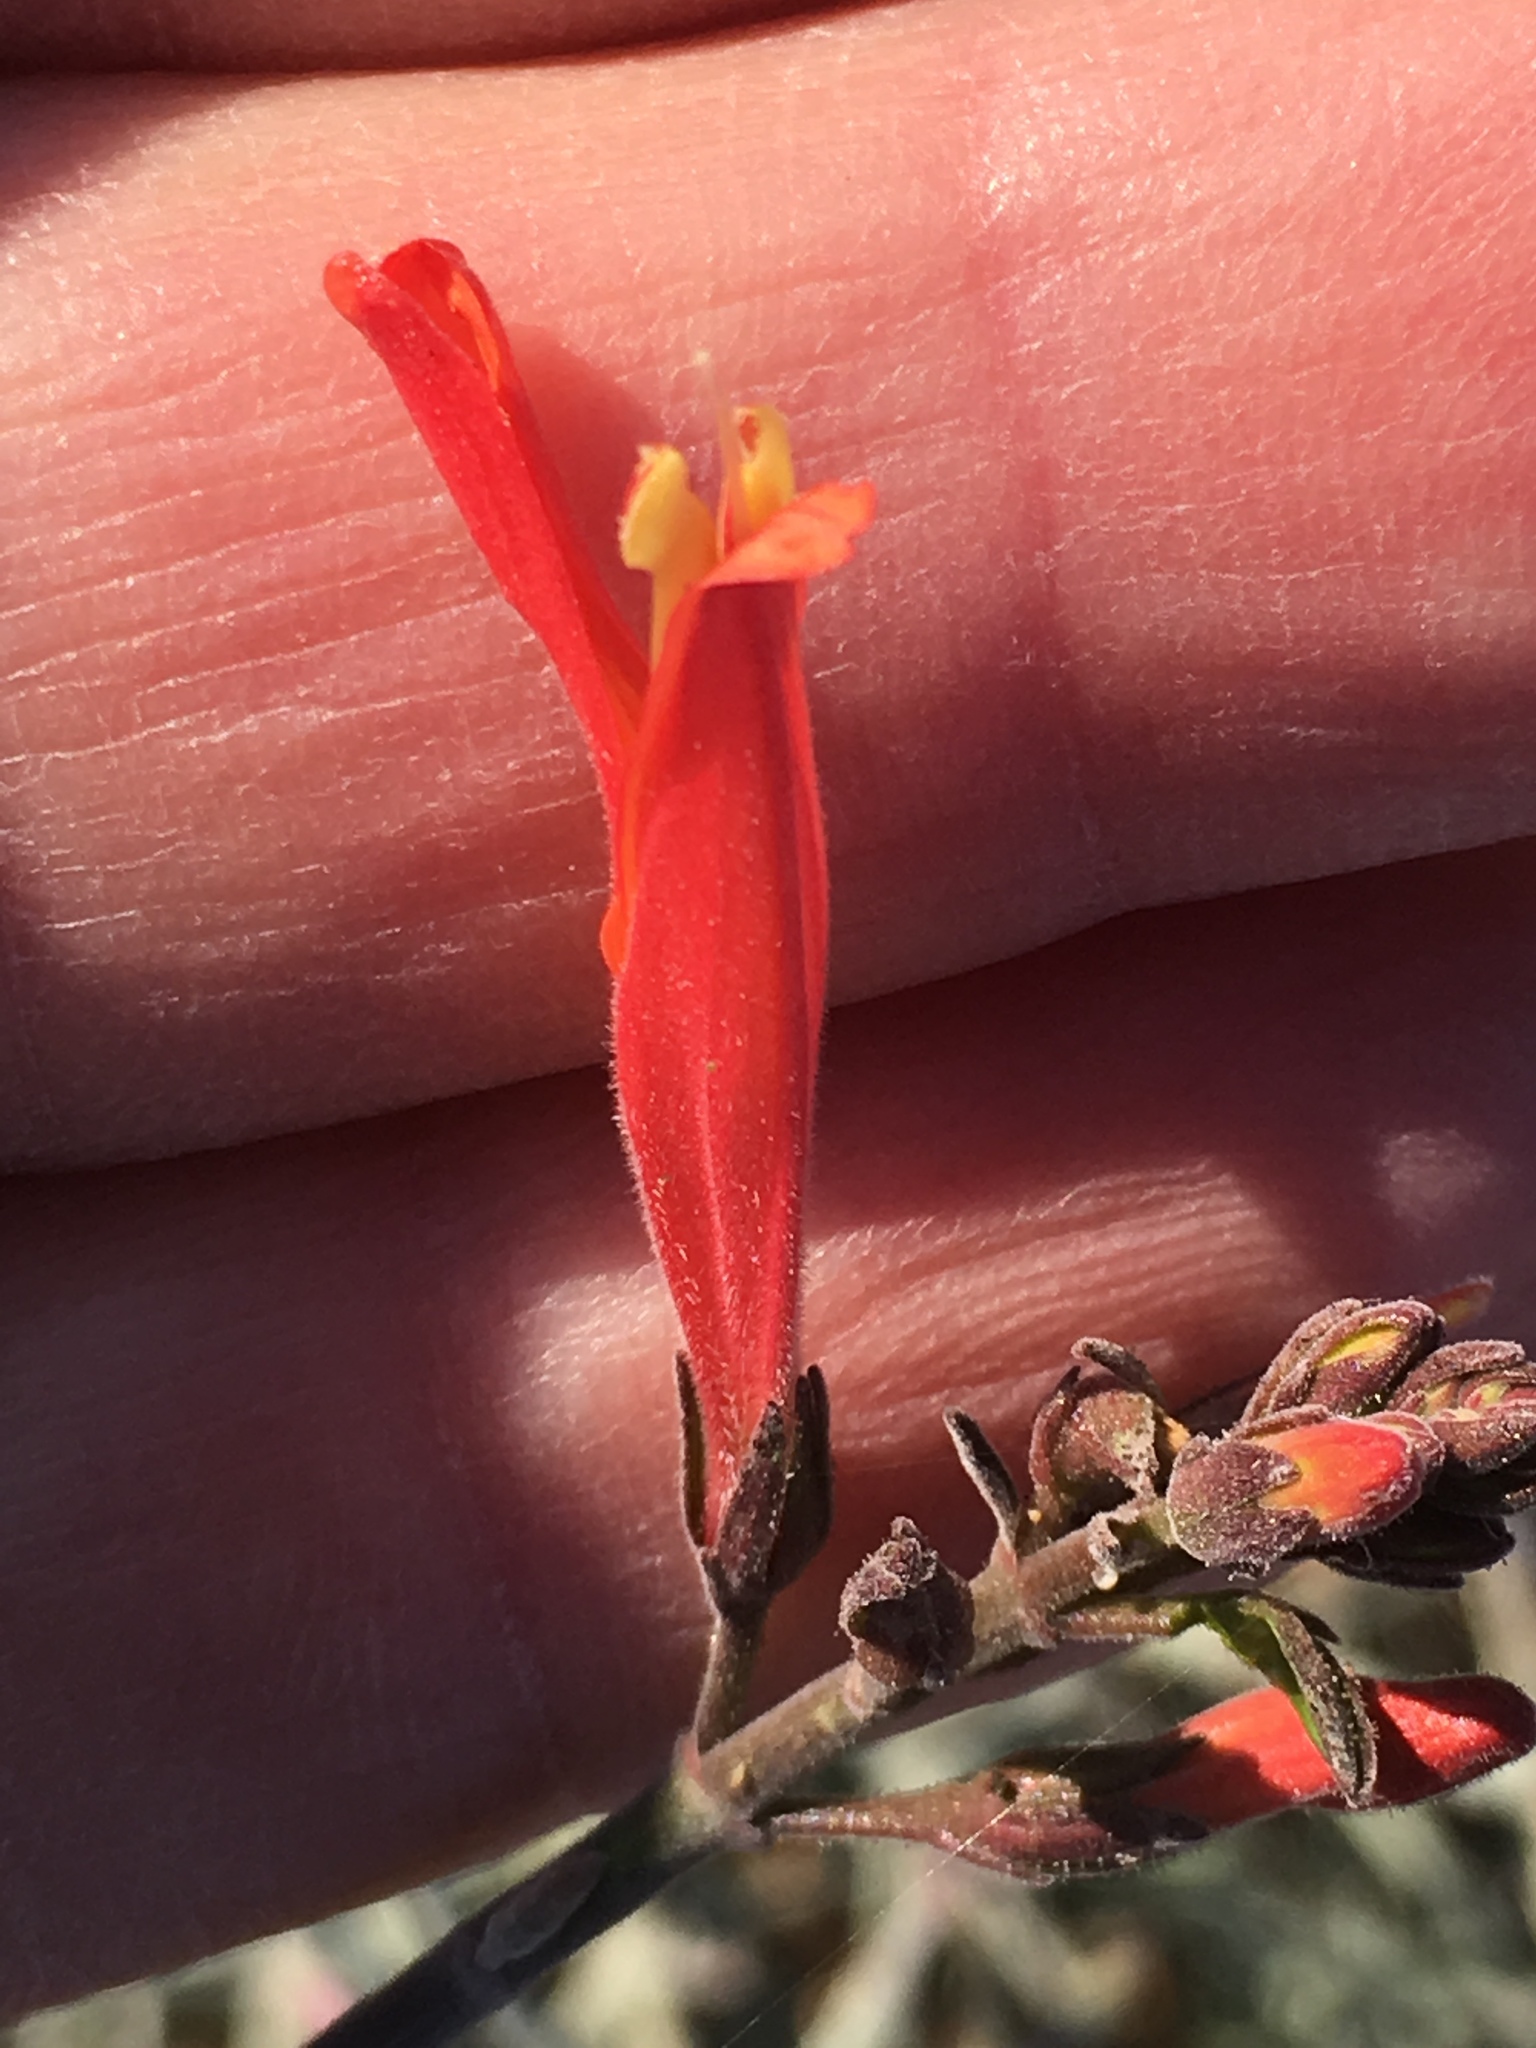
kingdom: Plantae
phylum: Tracheophyta
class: Magnoliopsida
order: Lamiales
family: Acanthaceae
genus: Justicia
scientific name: Justicia californica
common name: Chuparosa-honeysuckle
